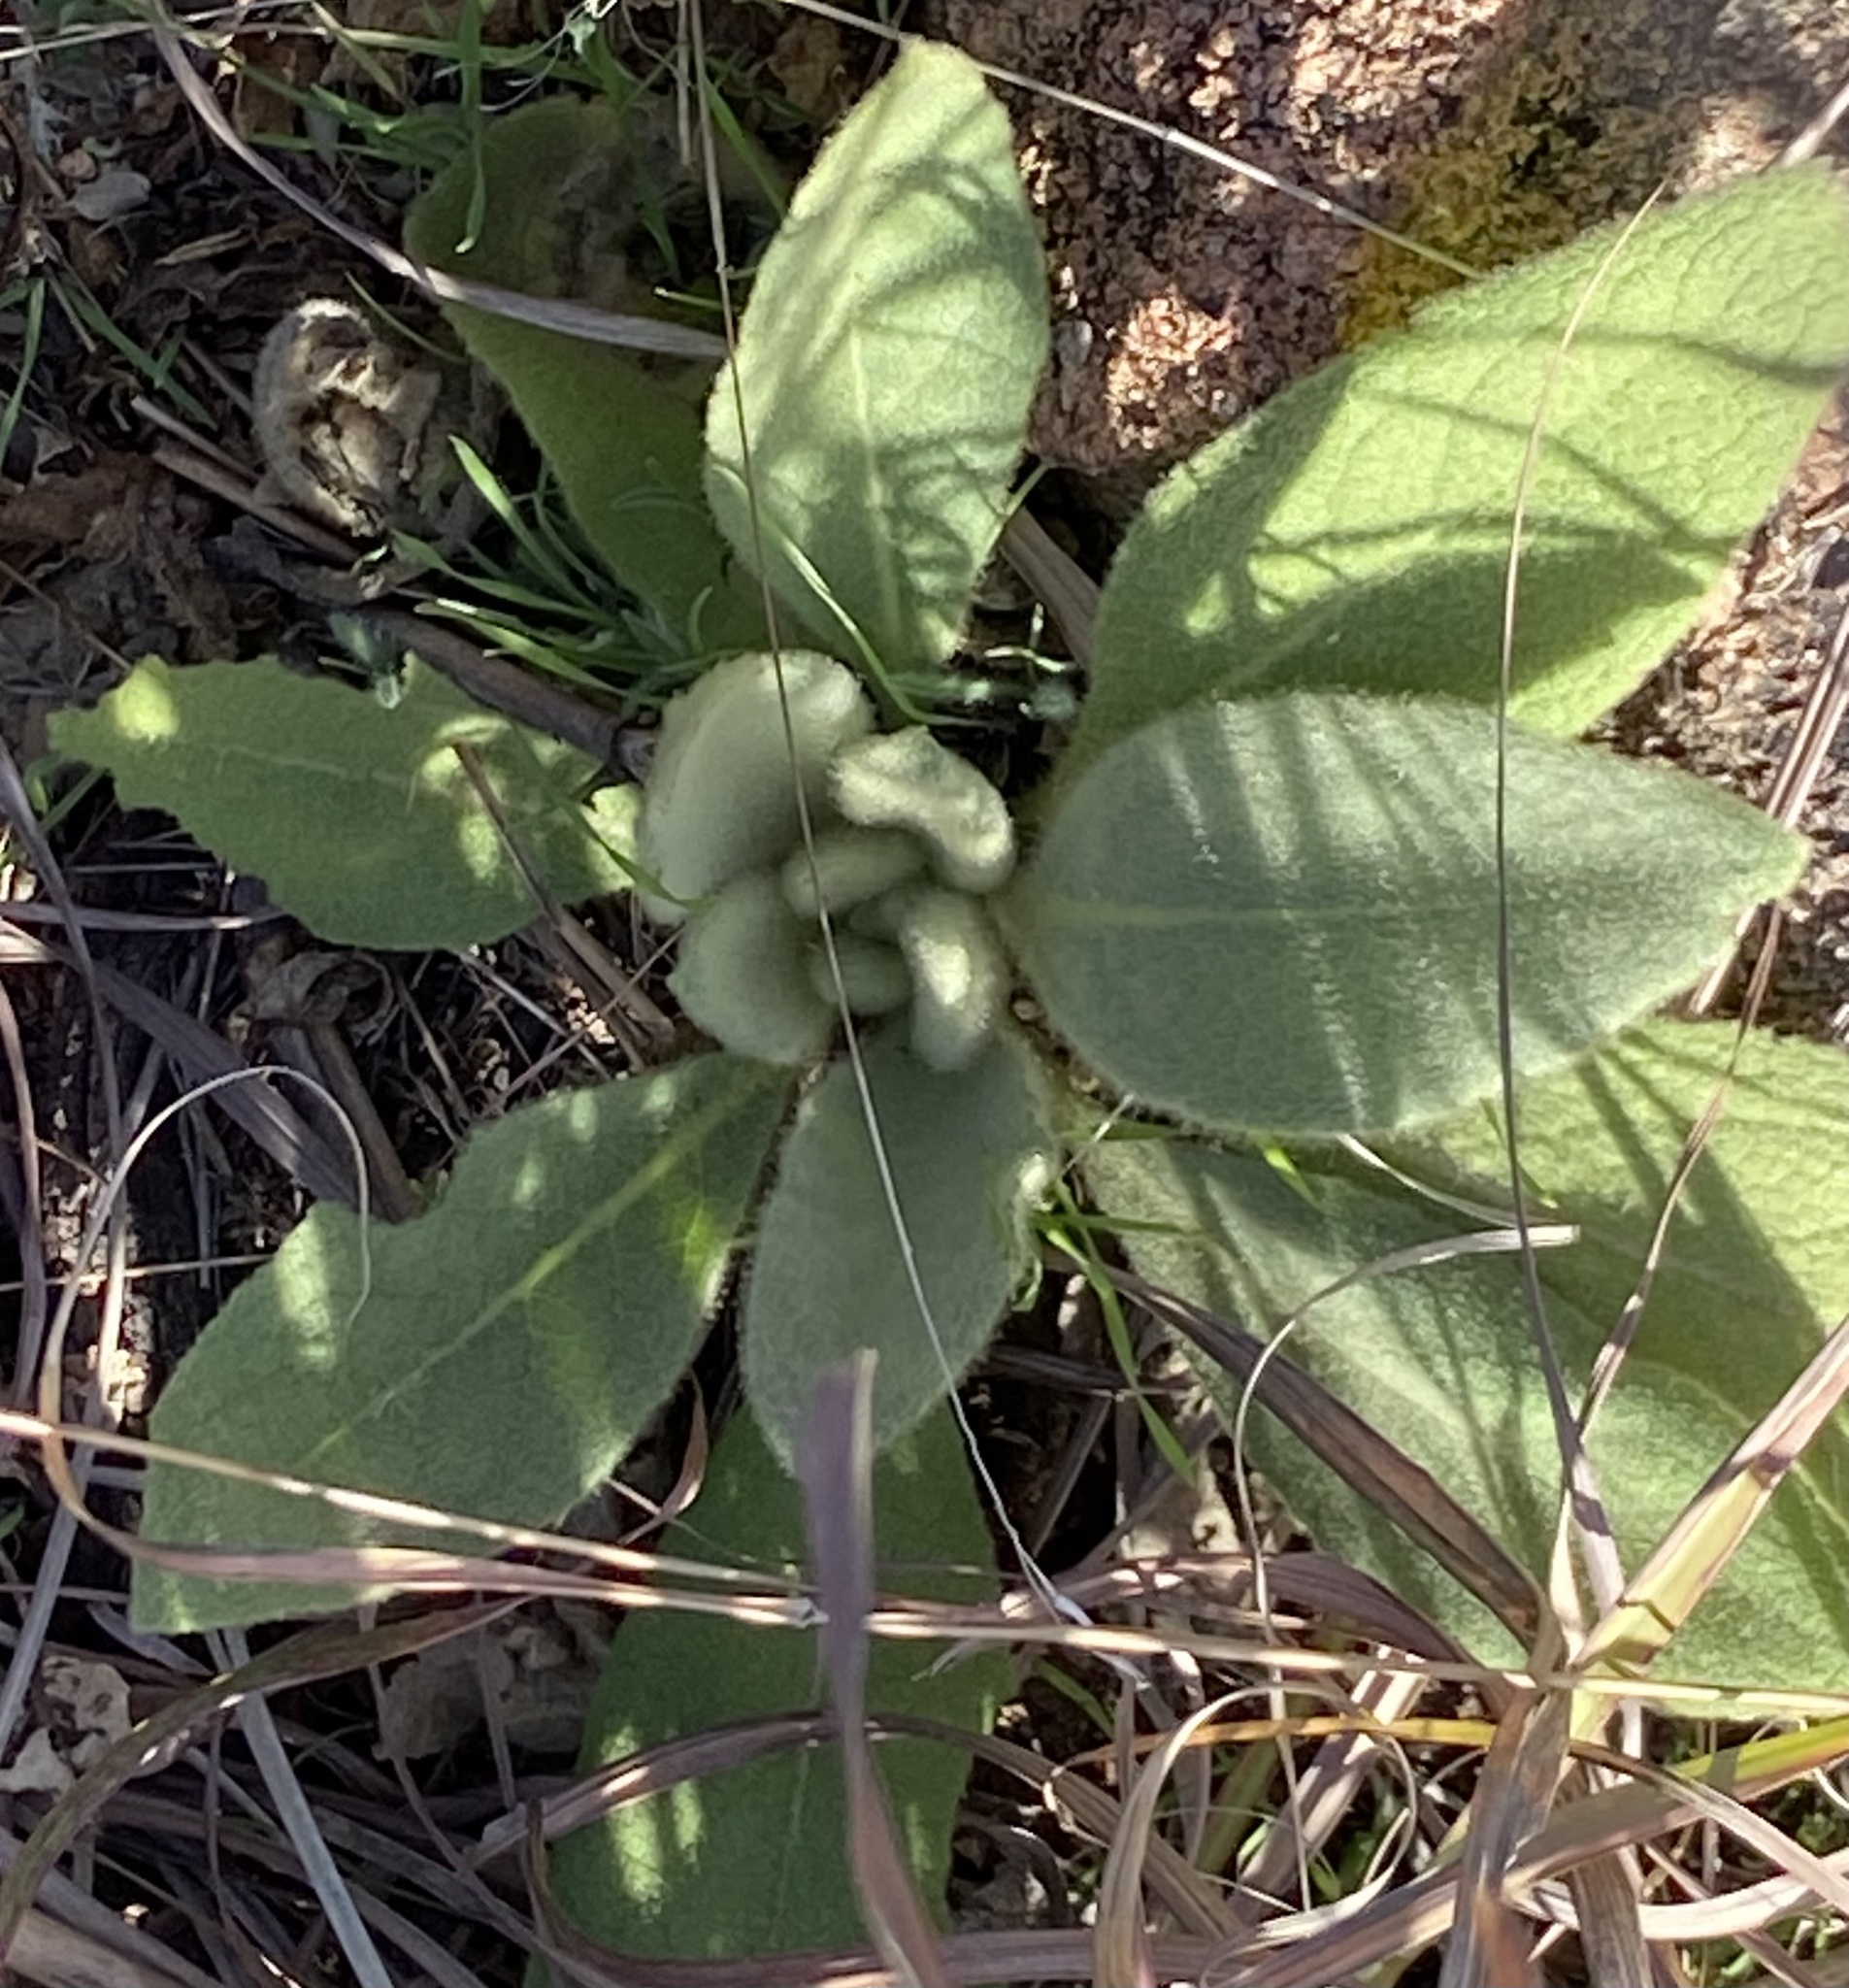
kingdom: Plantae
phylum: Tracheophyta
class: Magnoliopsida
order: Lamiales
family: Scrophulariaceae
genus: Verbascum
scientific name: Verbascum thapsus
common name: Common mullein
